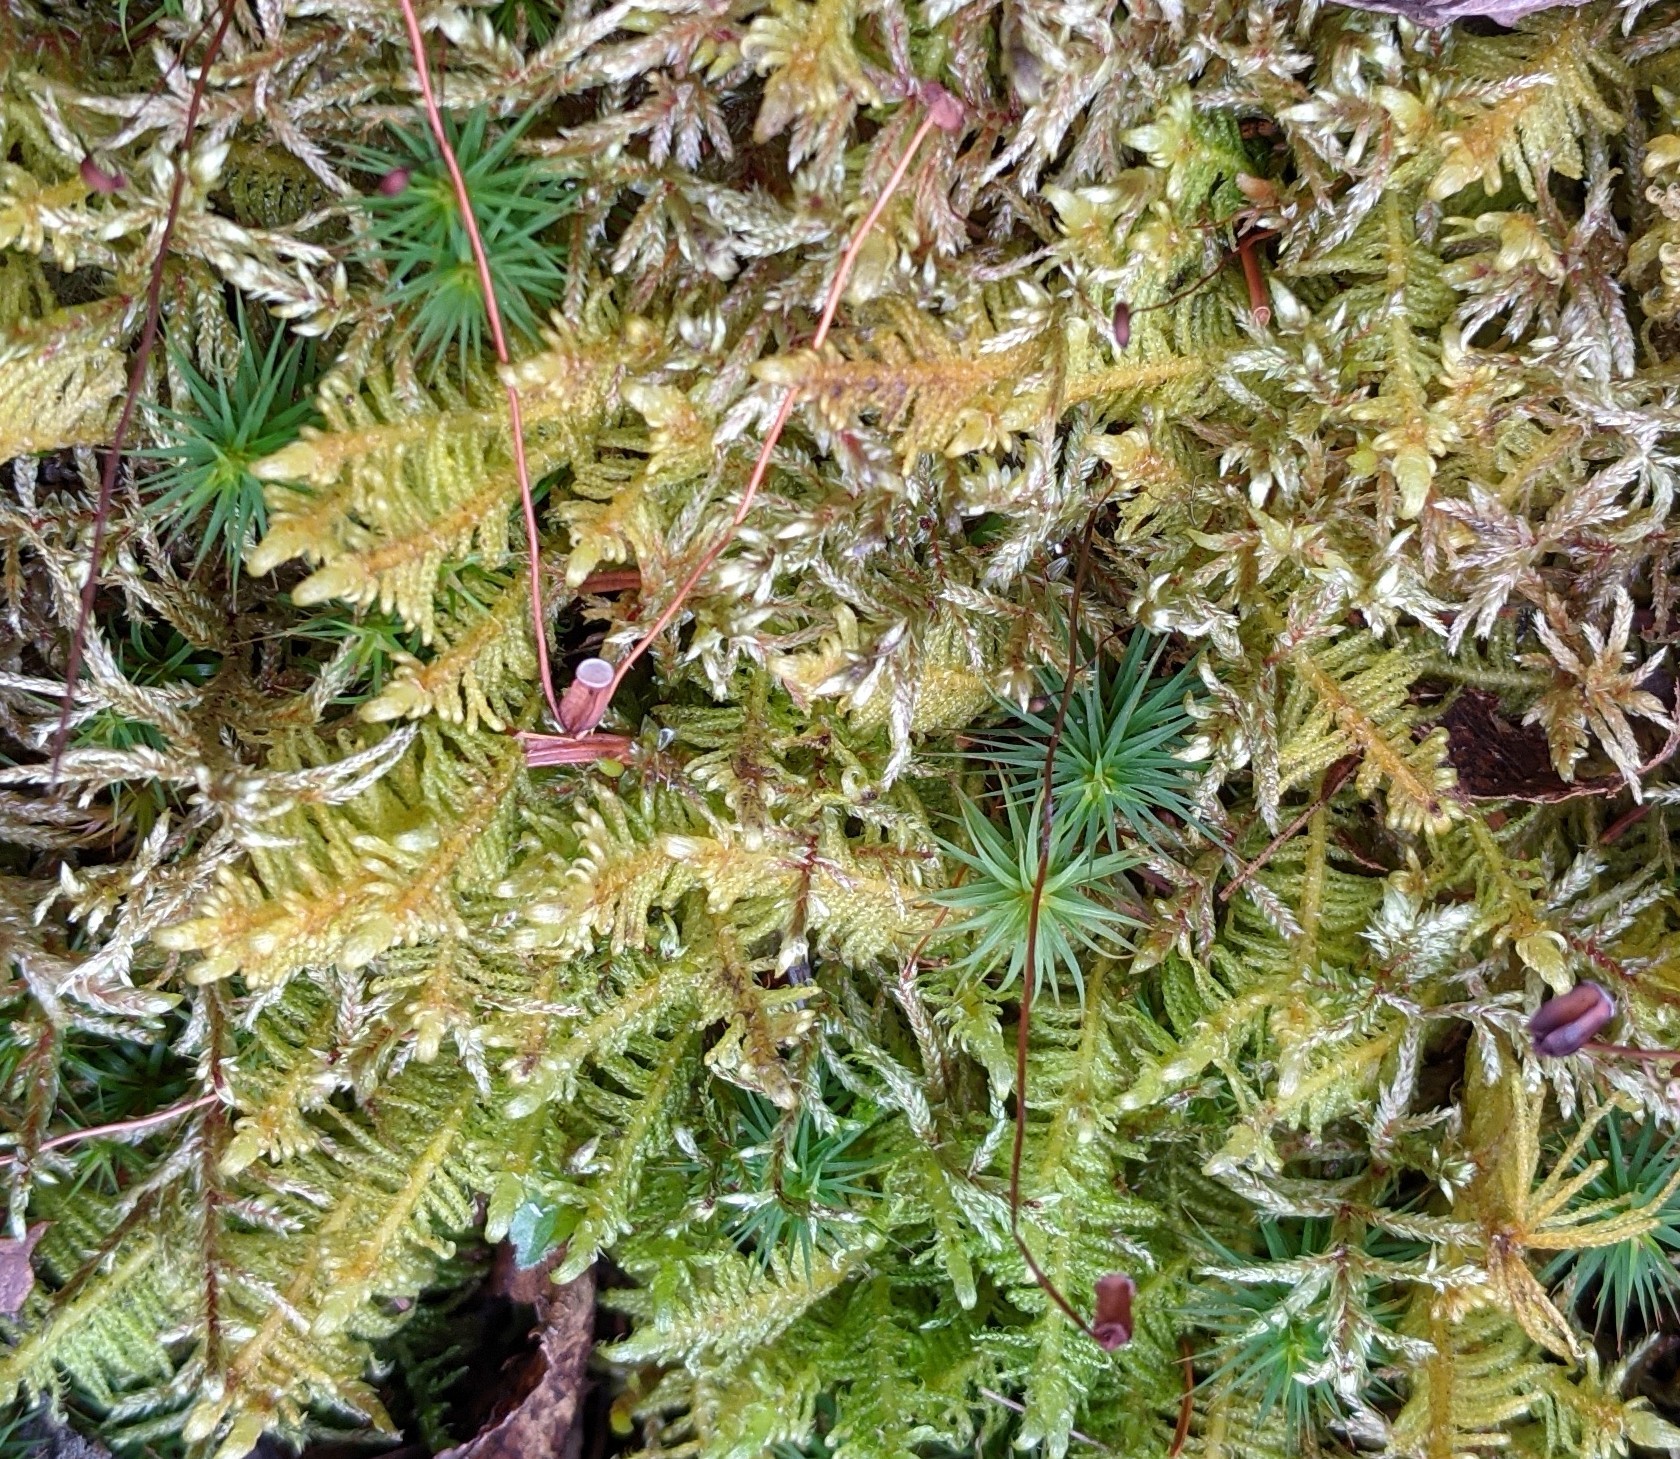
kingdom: Plantae
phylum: Bryophyta
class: Bryopsida
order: Hypnales
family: Pylaisiaceae
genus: Ptilium
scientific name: Ptilium crista-castrensis
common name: Knight's plume moss
